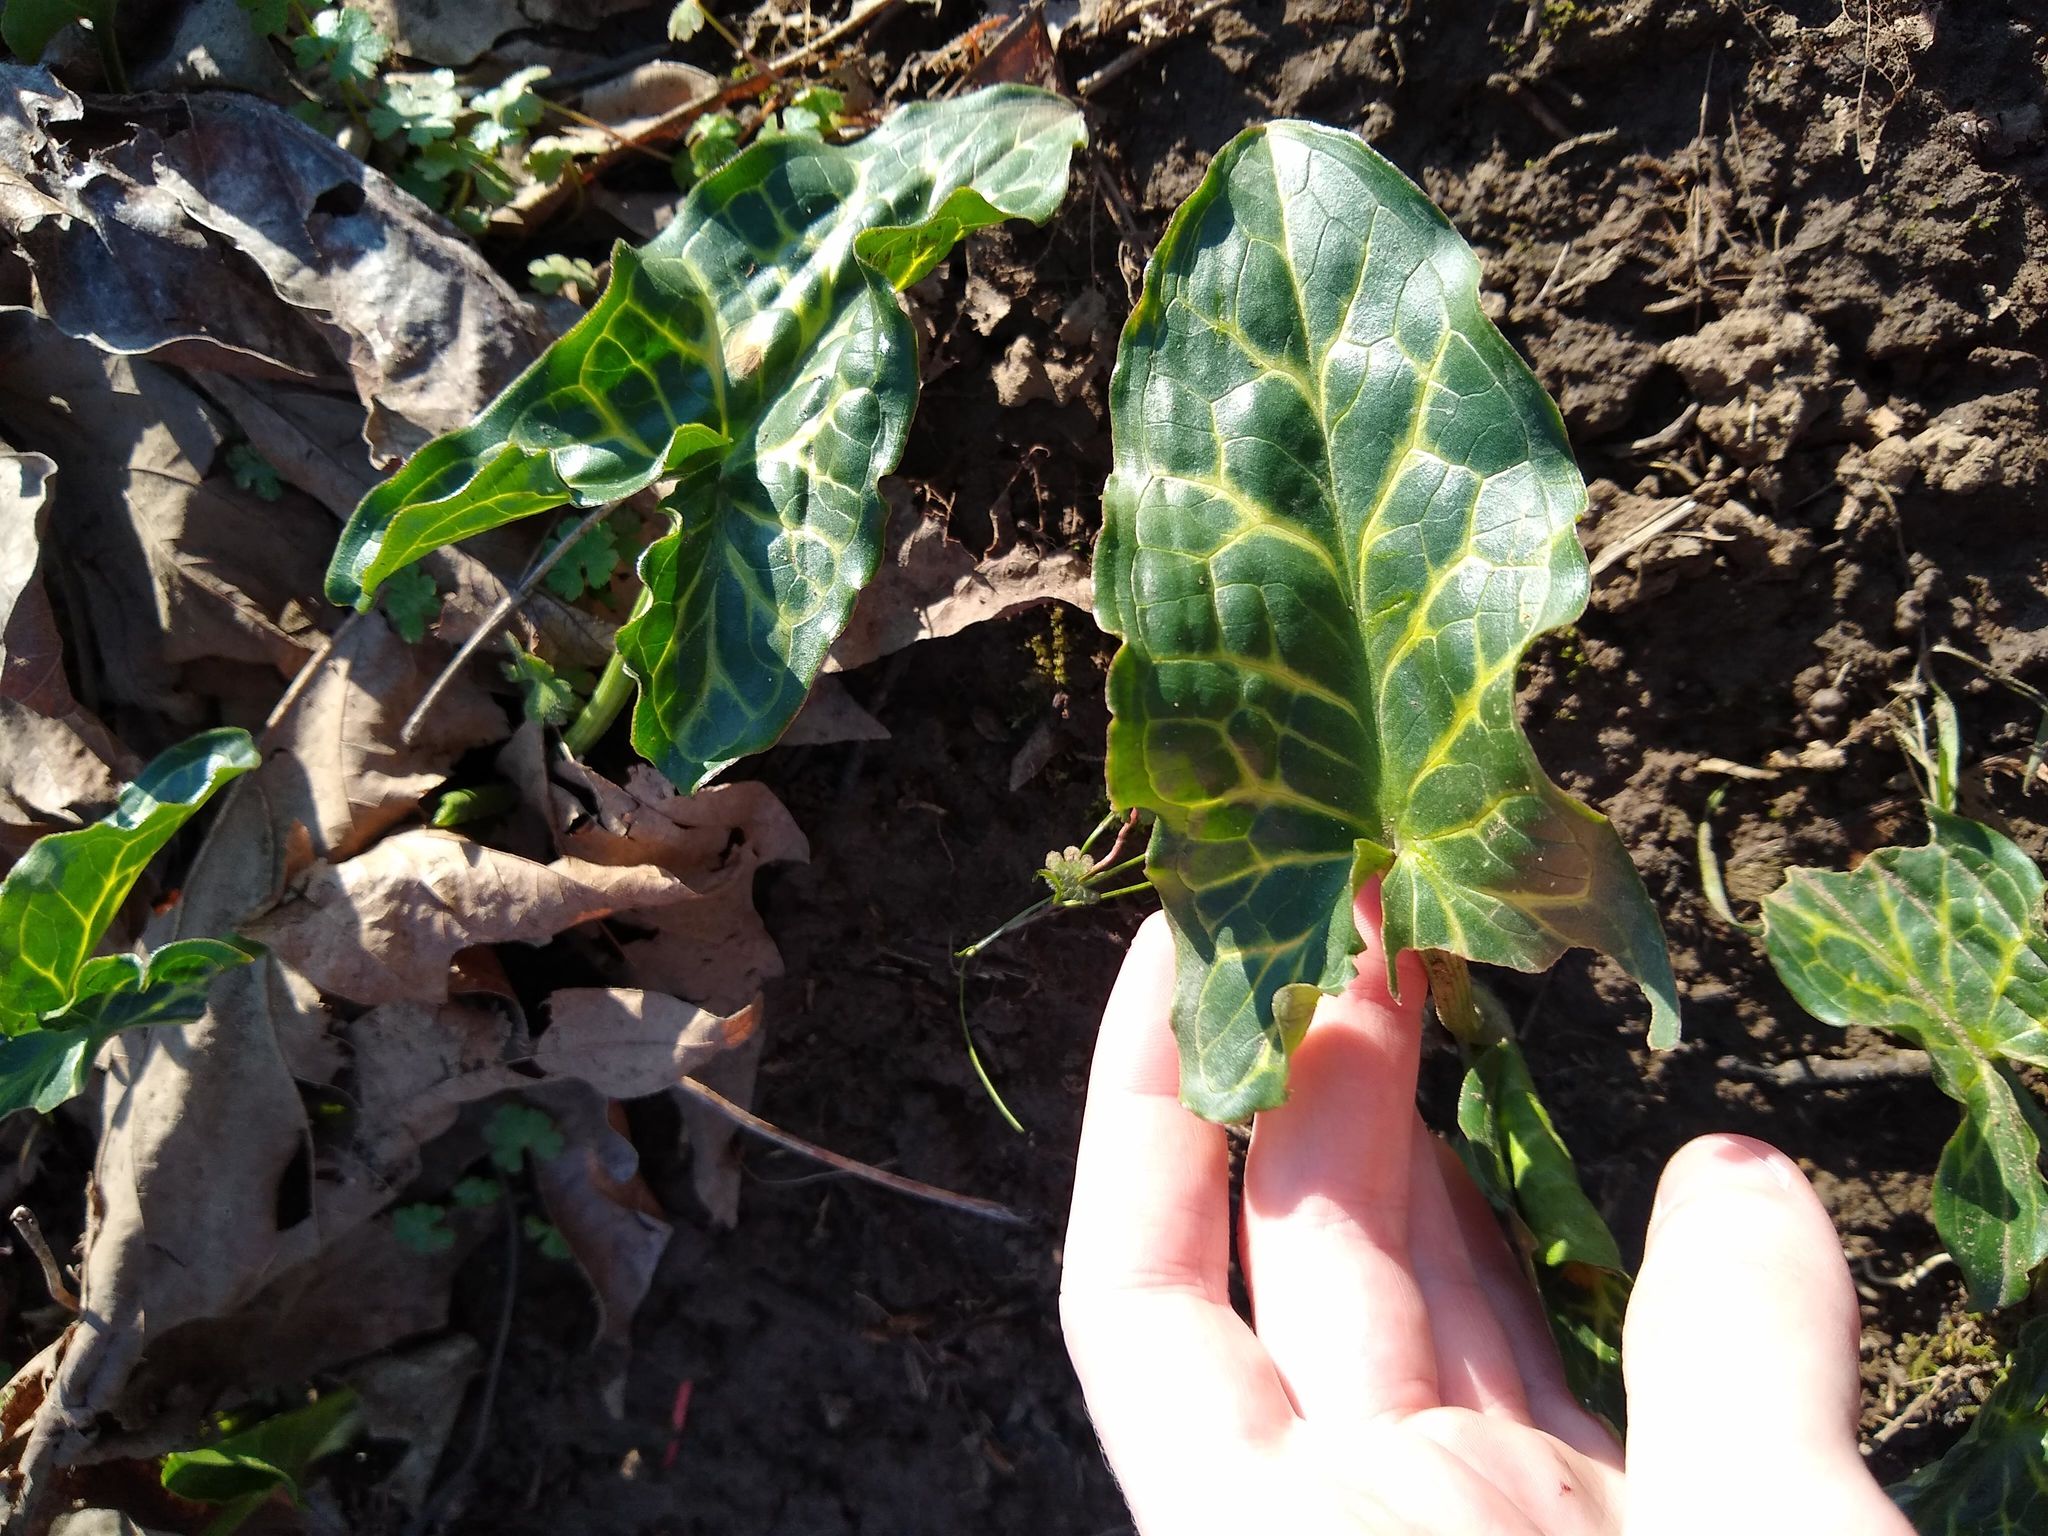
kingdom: Plantae
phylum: Tracheophyta
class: Liliopsida
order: Alismatales
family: Araceae
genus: Arum
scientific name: Arum italicum
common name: Italian lords-and-ladies
